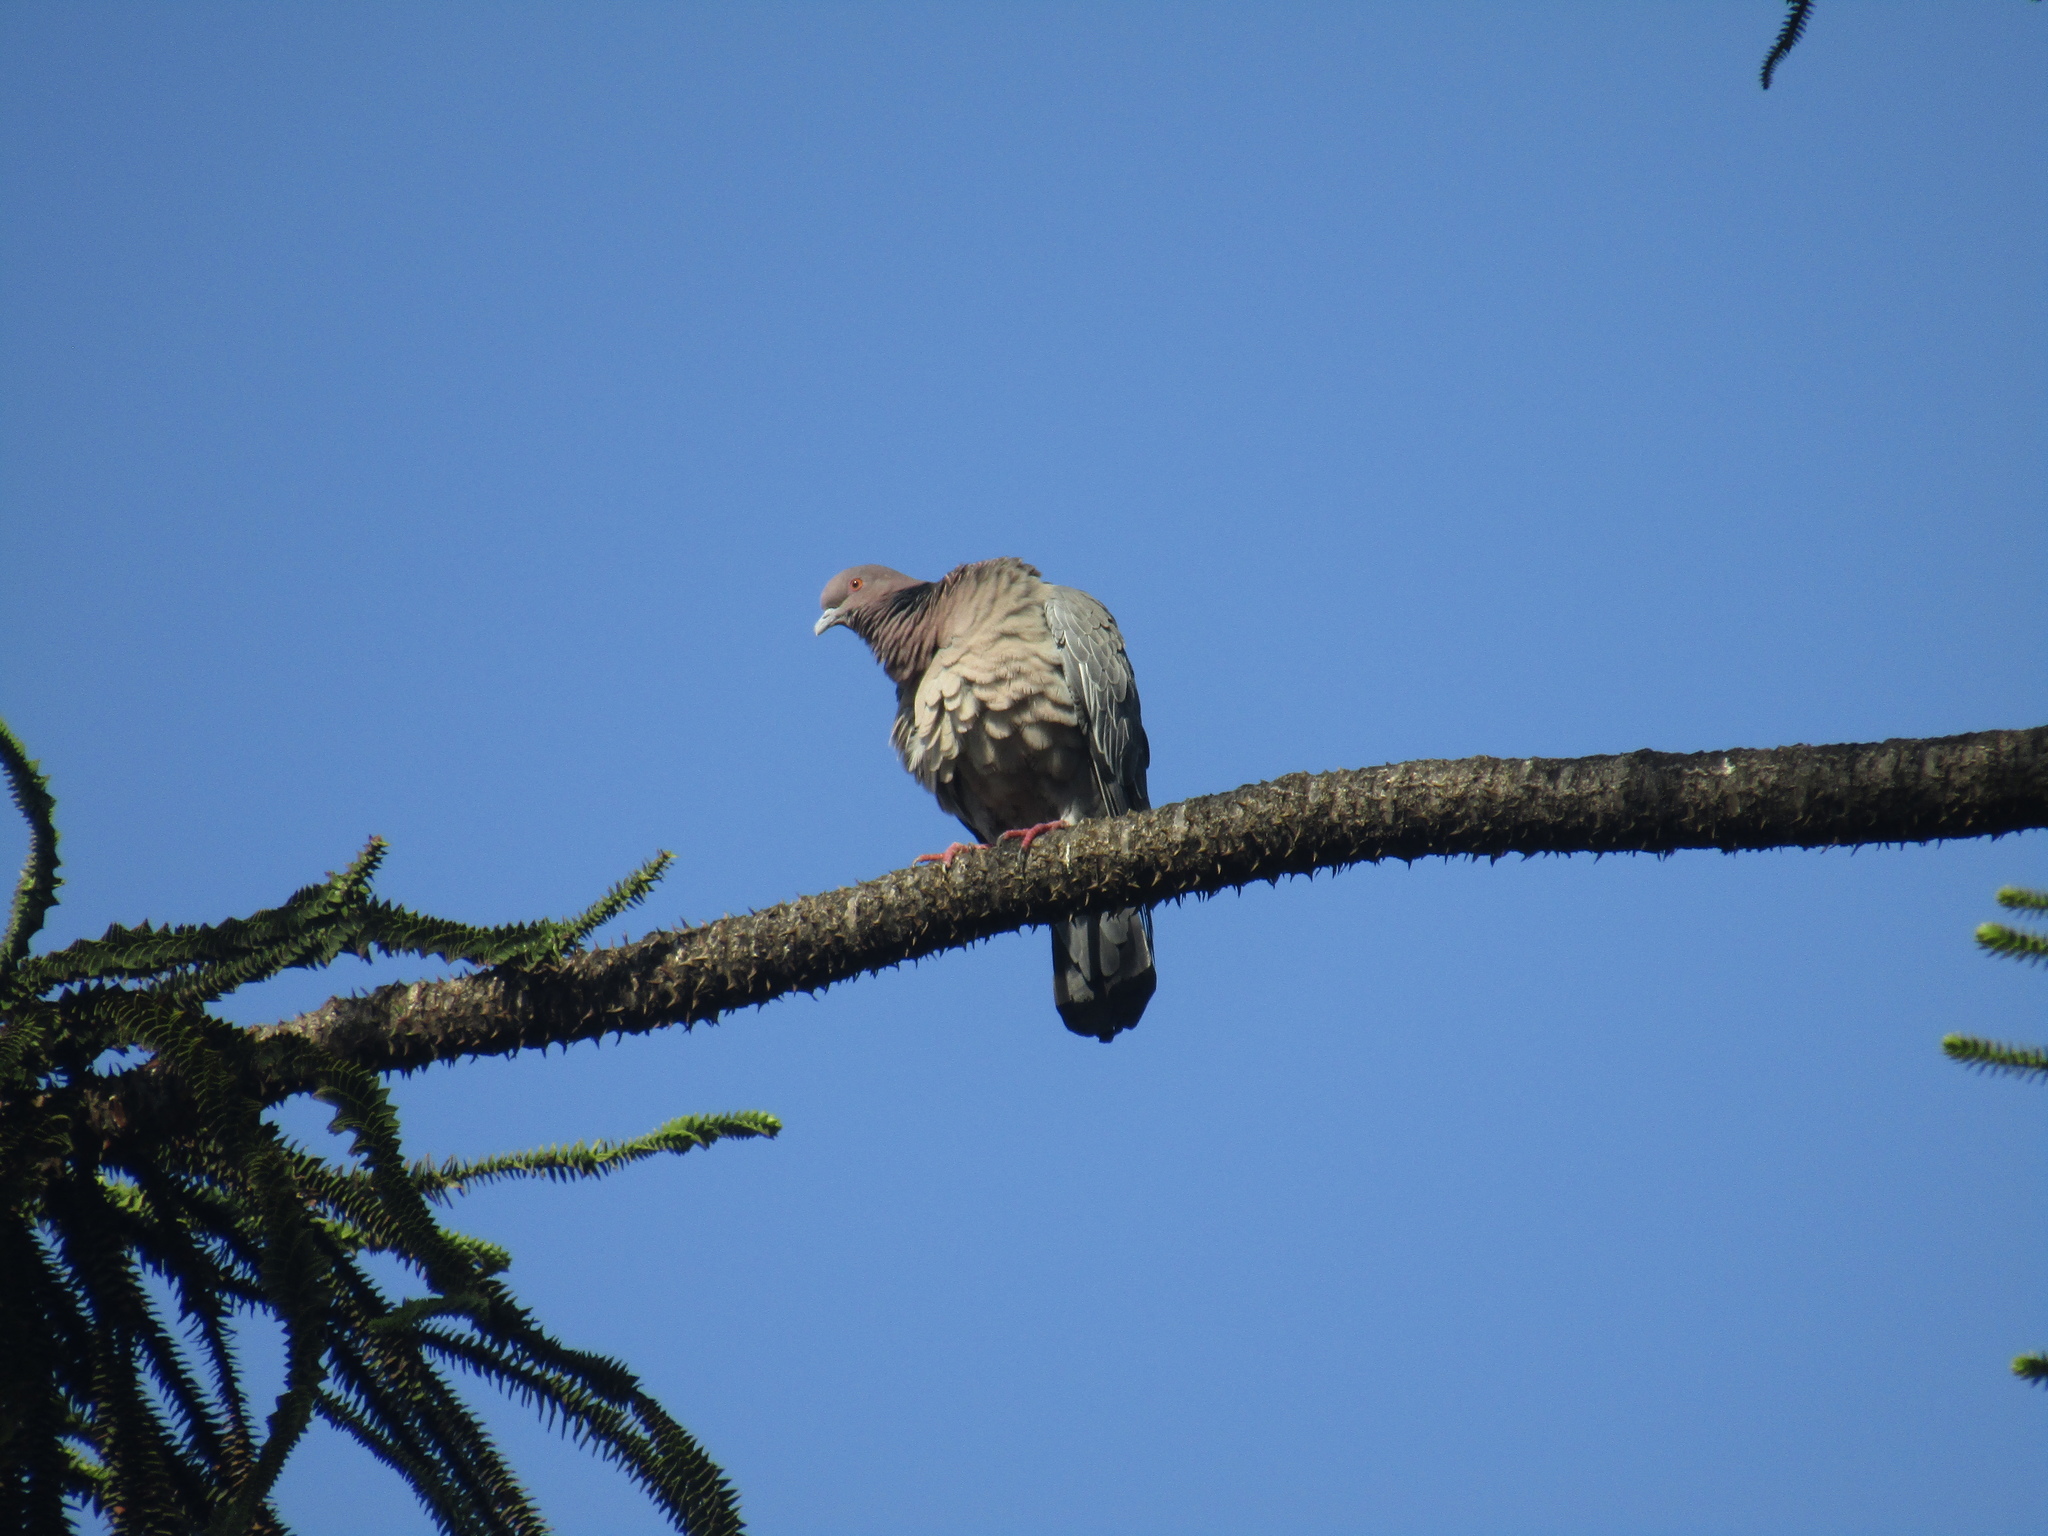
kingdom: Animalia
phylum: Chordata
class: Aves
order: Columbiformes
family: Columbidae
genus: Patagioenas
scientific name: Patagioenas picazuro
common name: Picazuro pigeon
